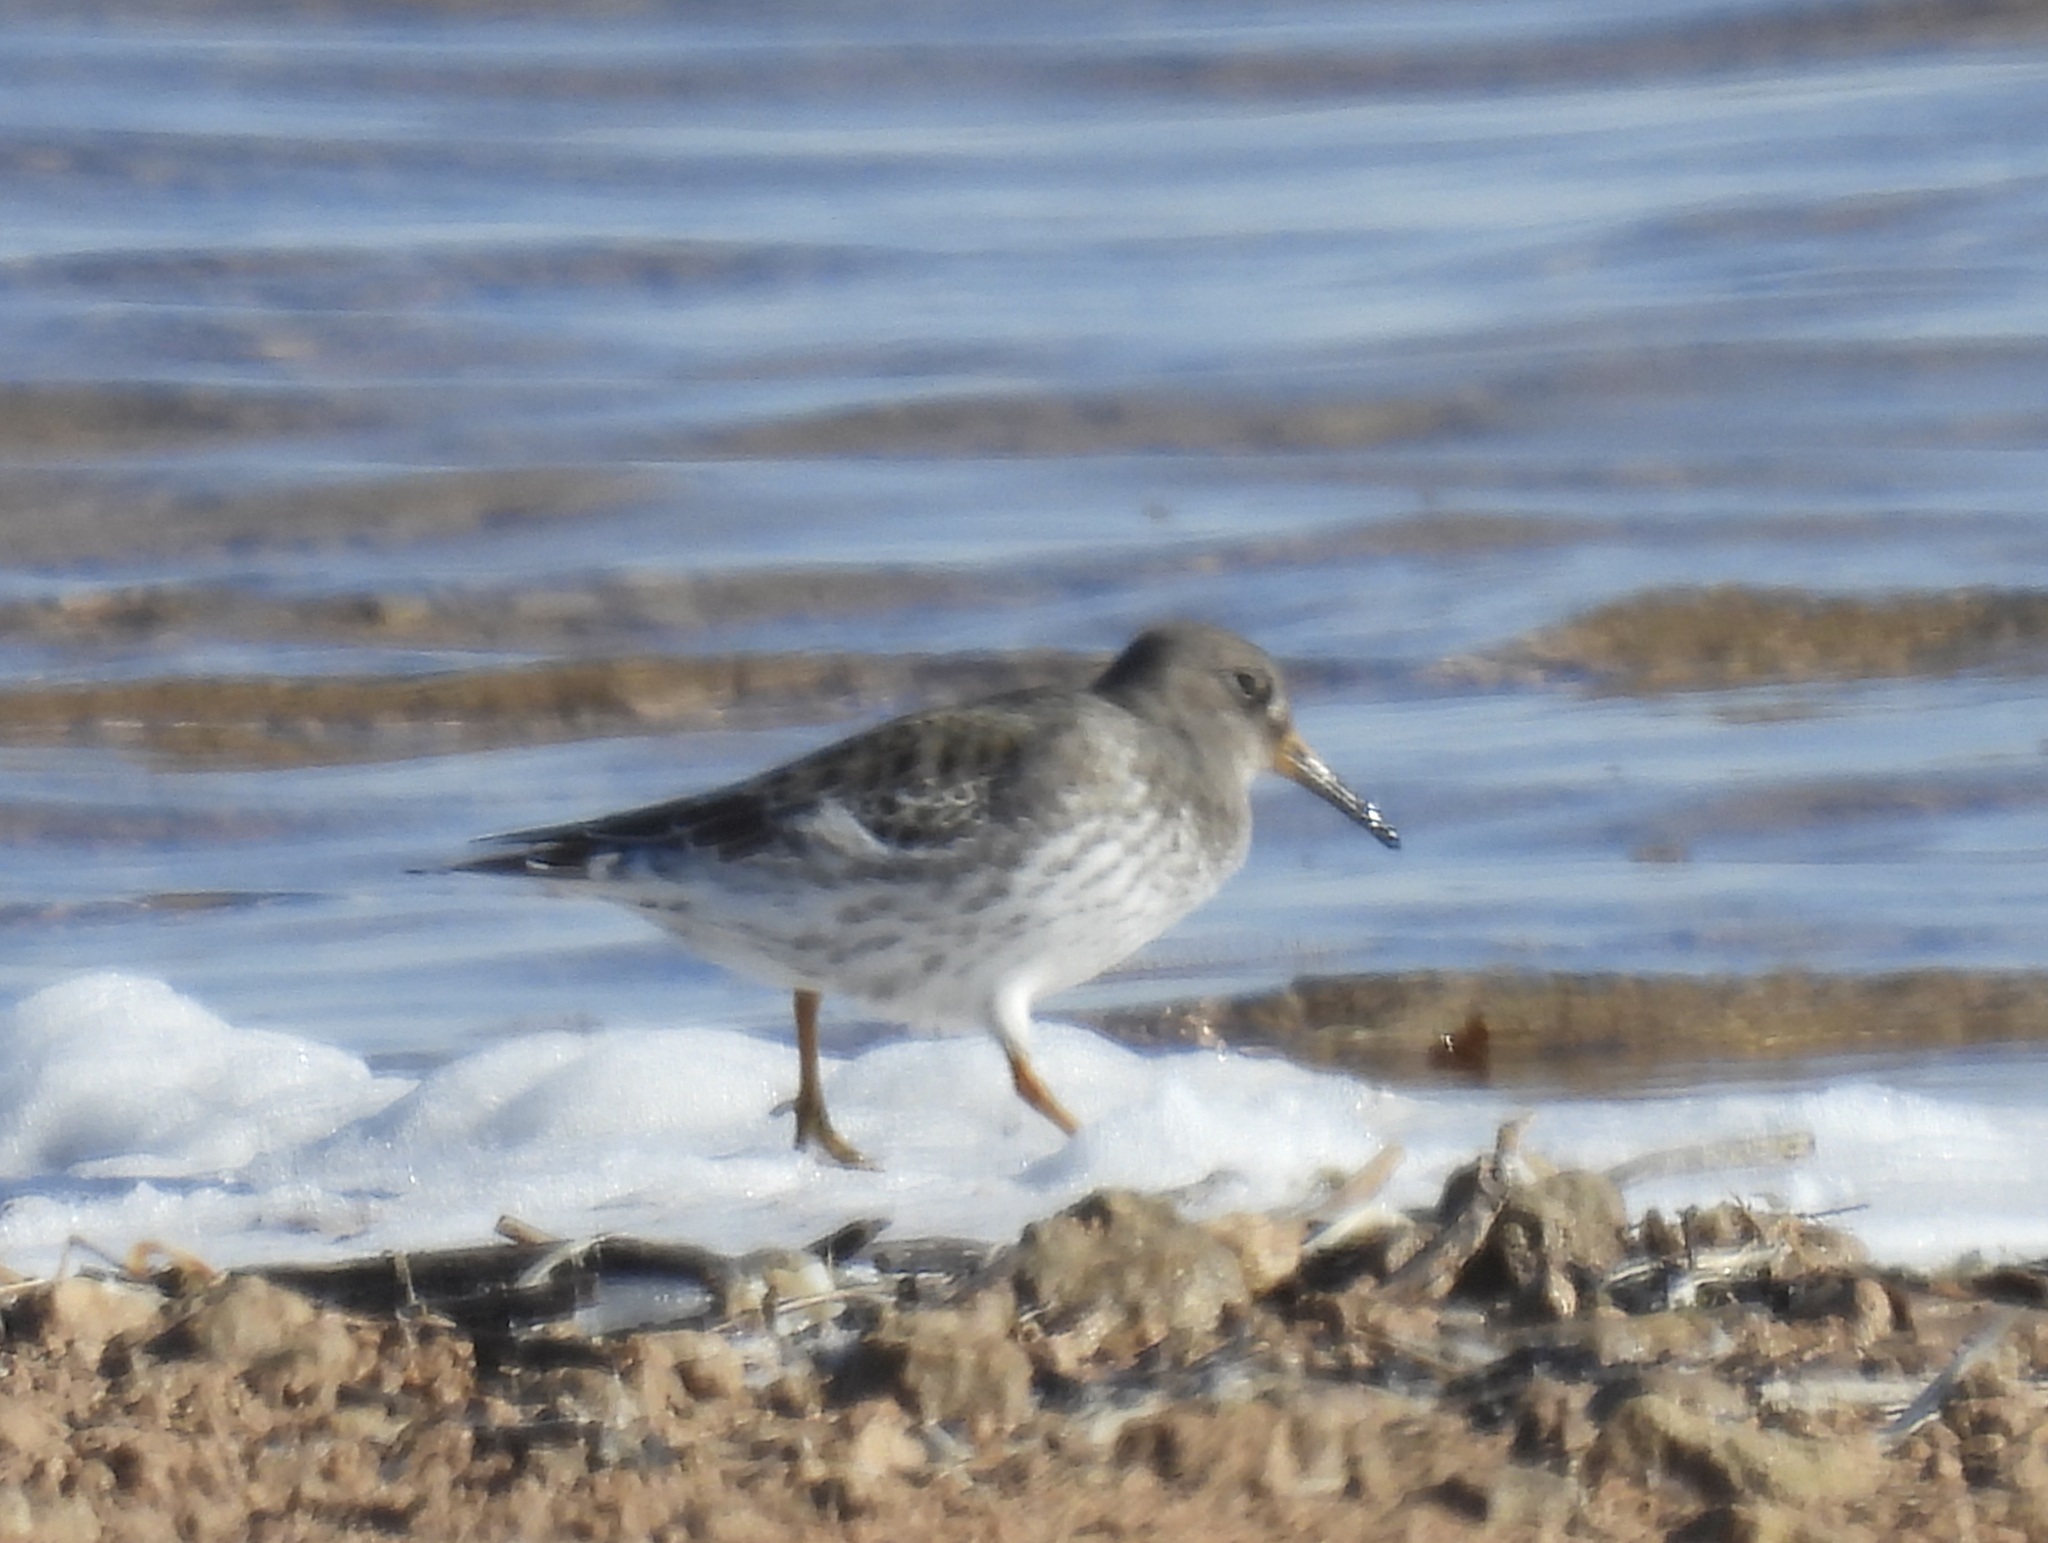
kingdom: Animalia
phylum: Chordata
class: Aves
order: Charadriiformes
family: Scolopacidae
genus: Calidris
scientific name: Calidris maritima
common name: Purple sandpiper
